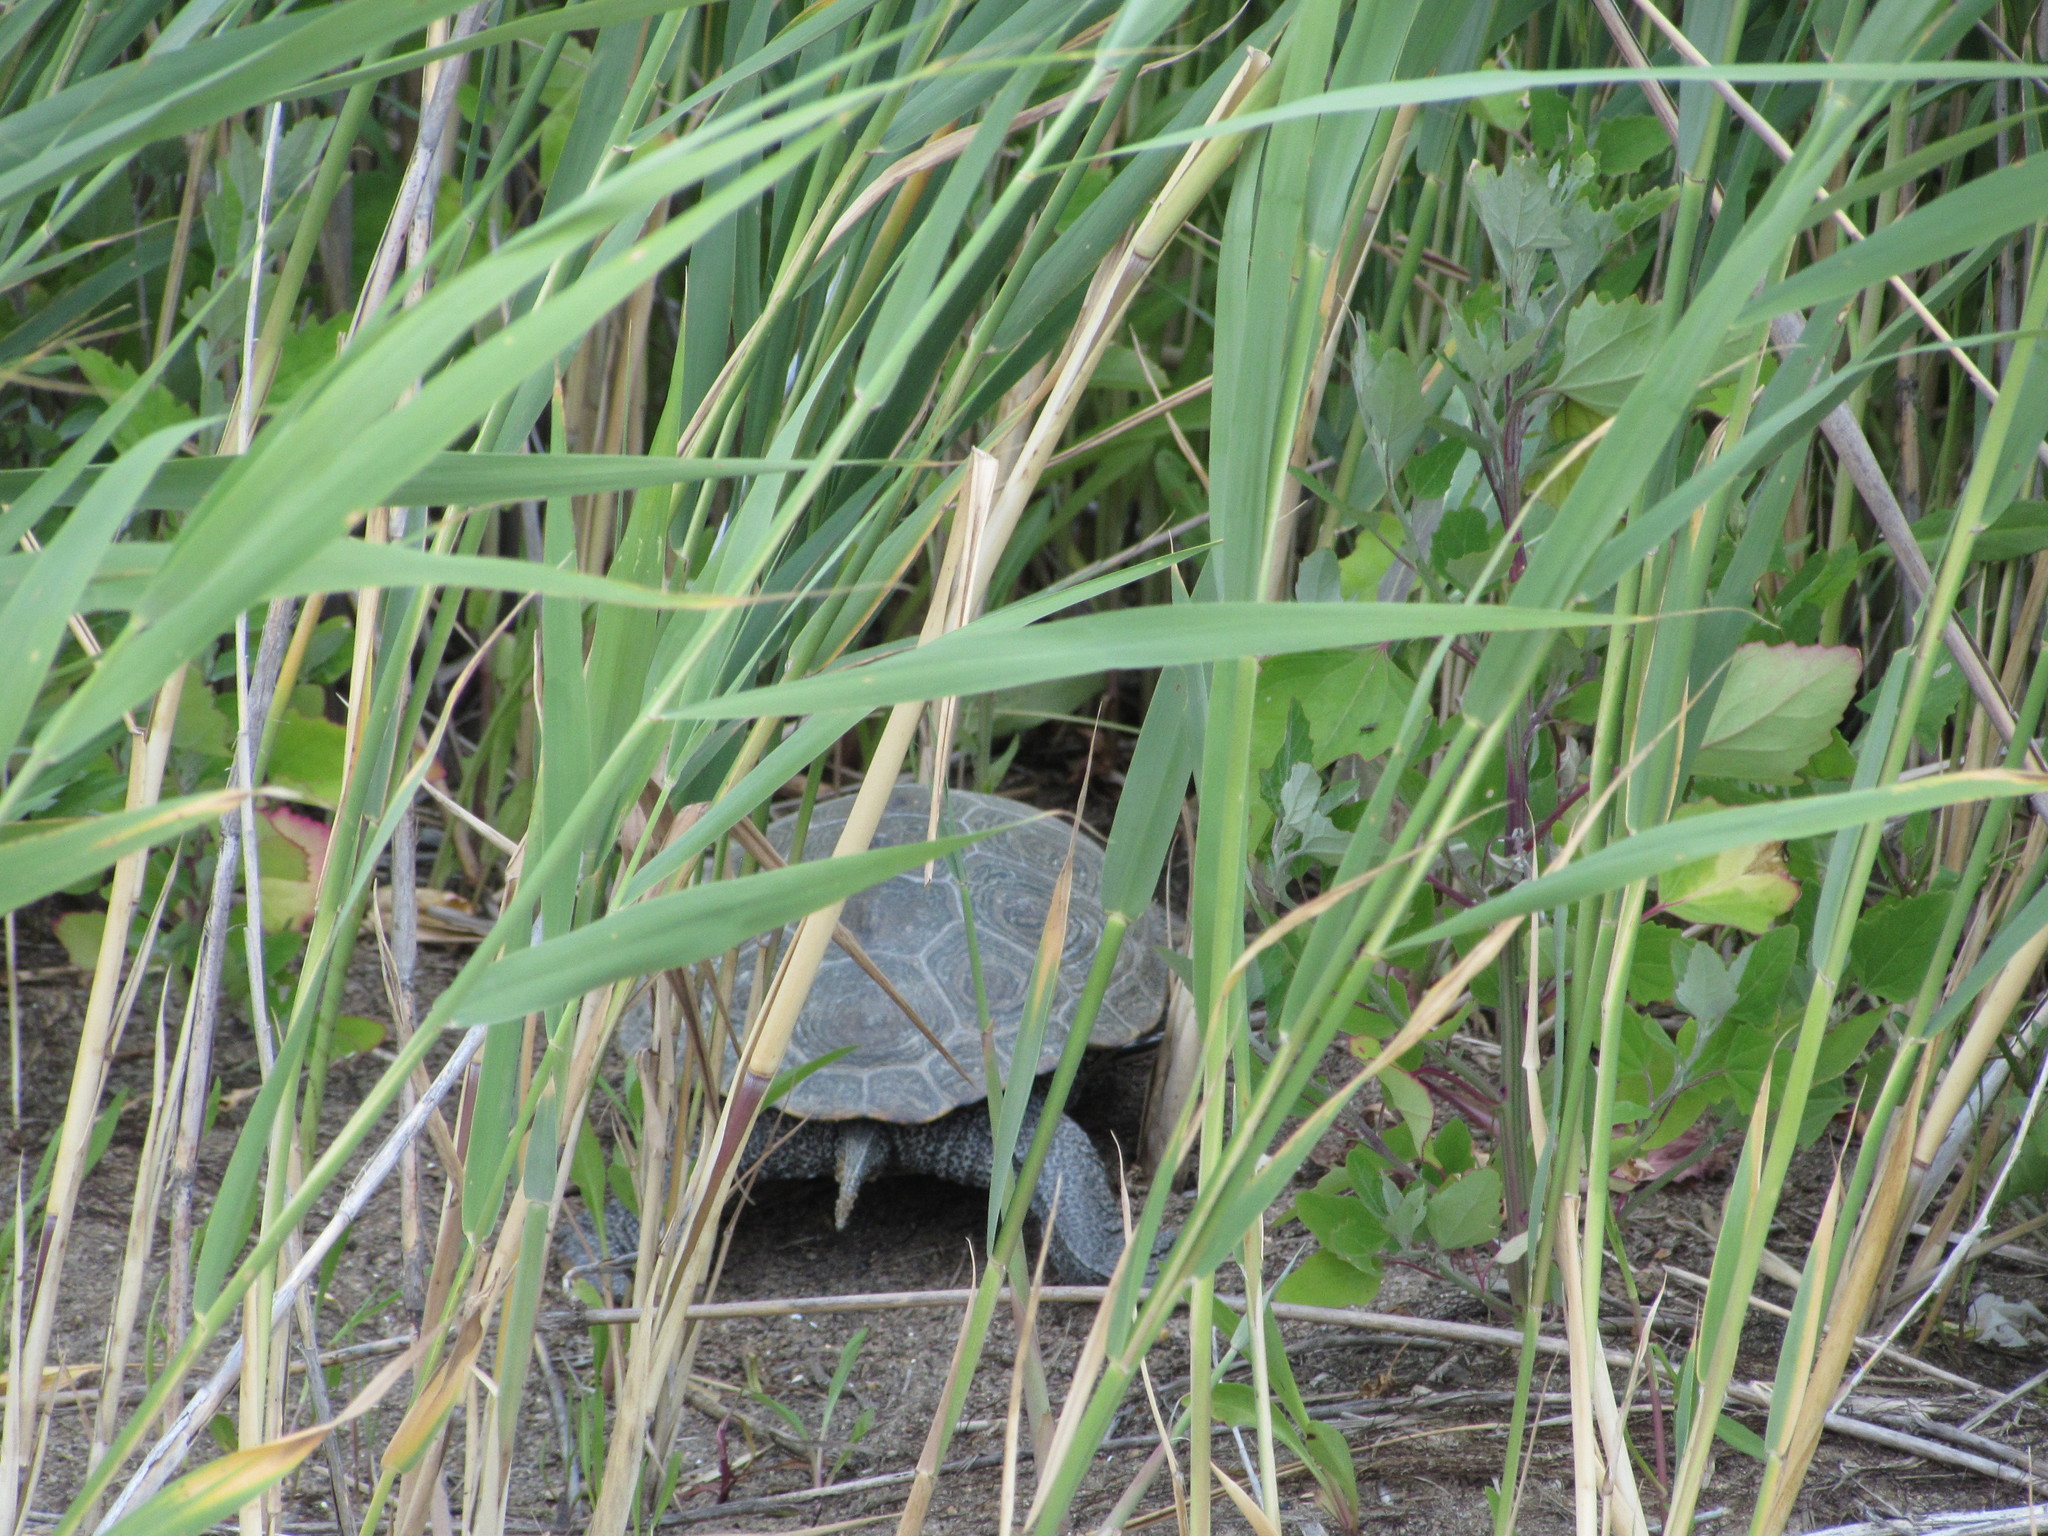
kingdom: Animalia
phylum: Chordata
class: Testudines
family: Emydidae
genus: Malaclemys
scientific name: Malaclemys terrapin
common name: Diamondback terrapin
